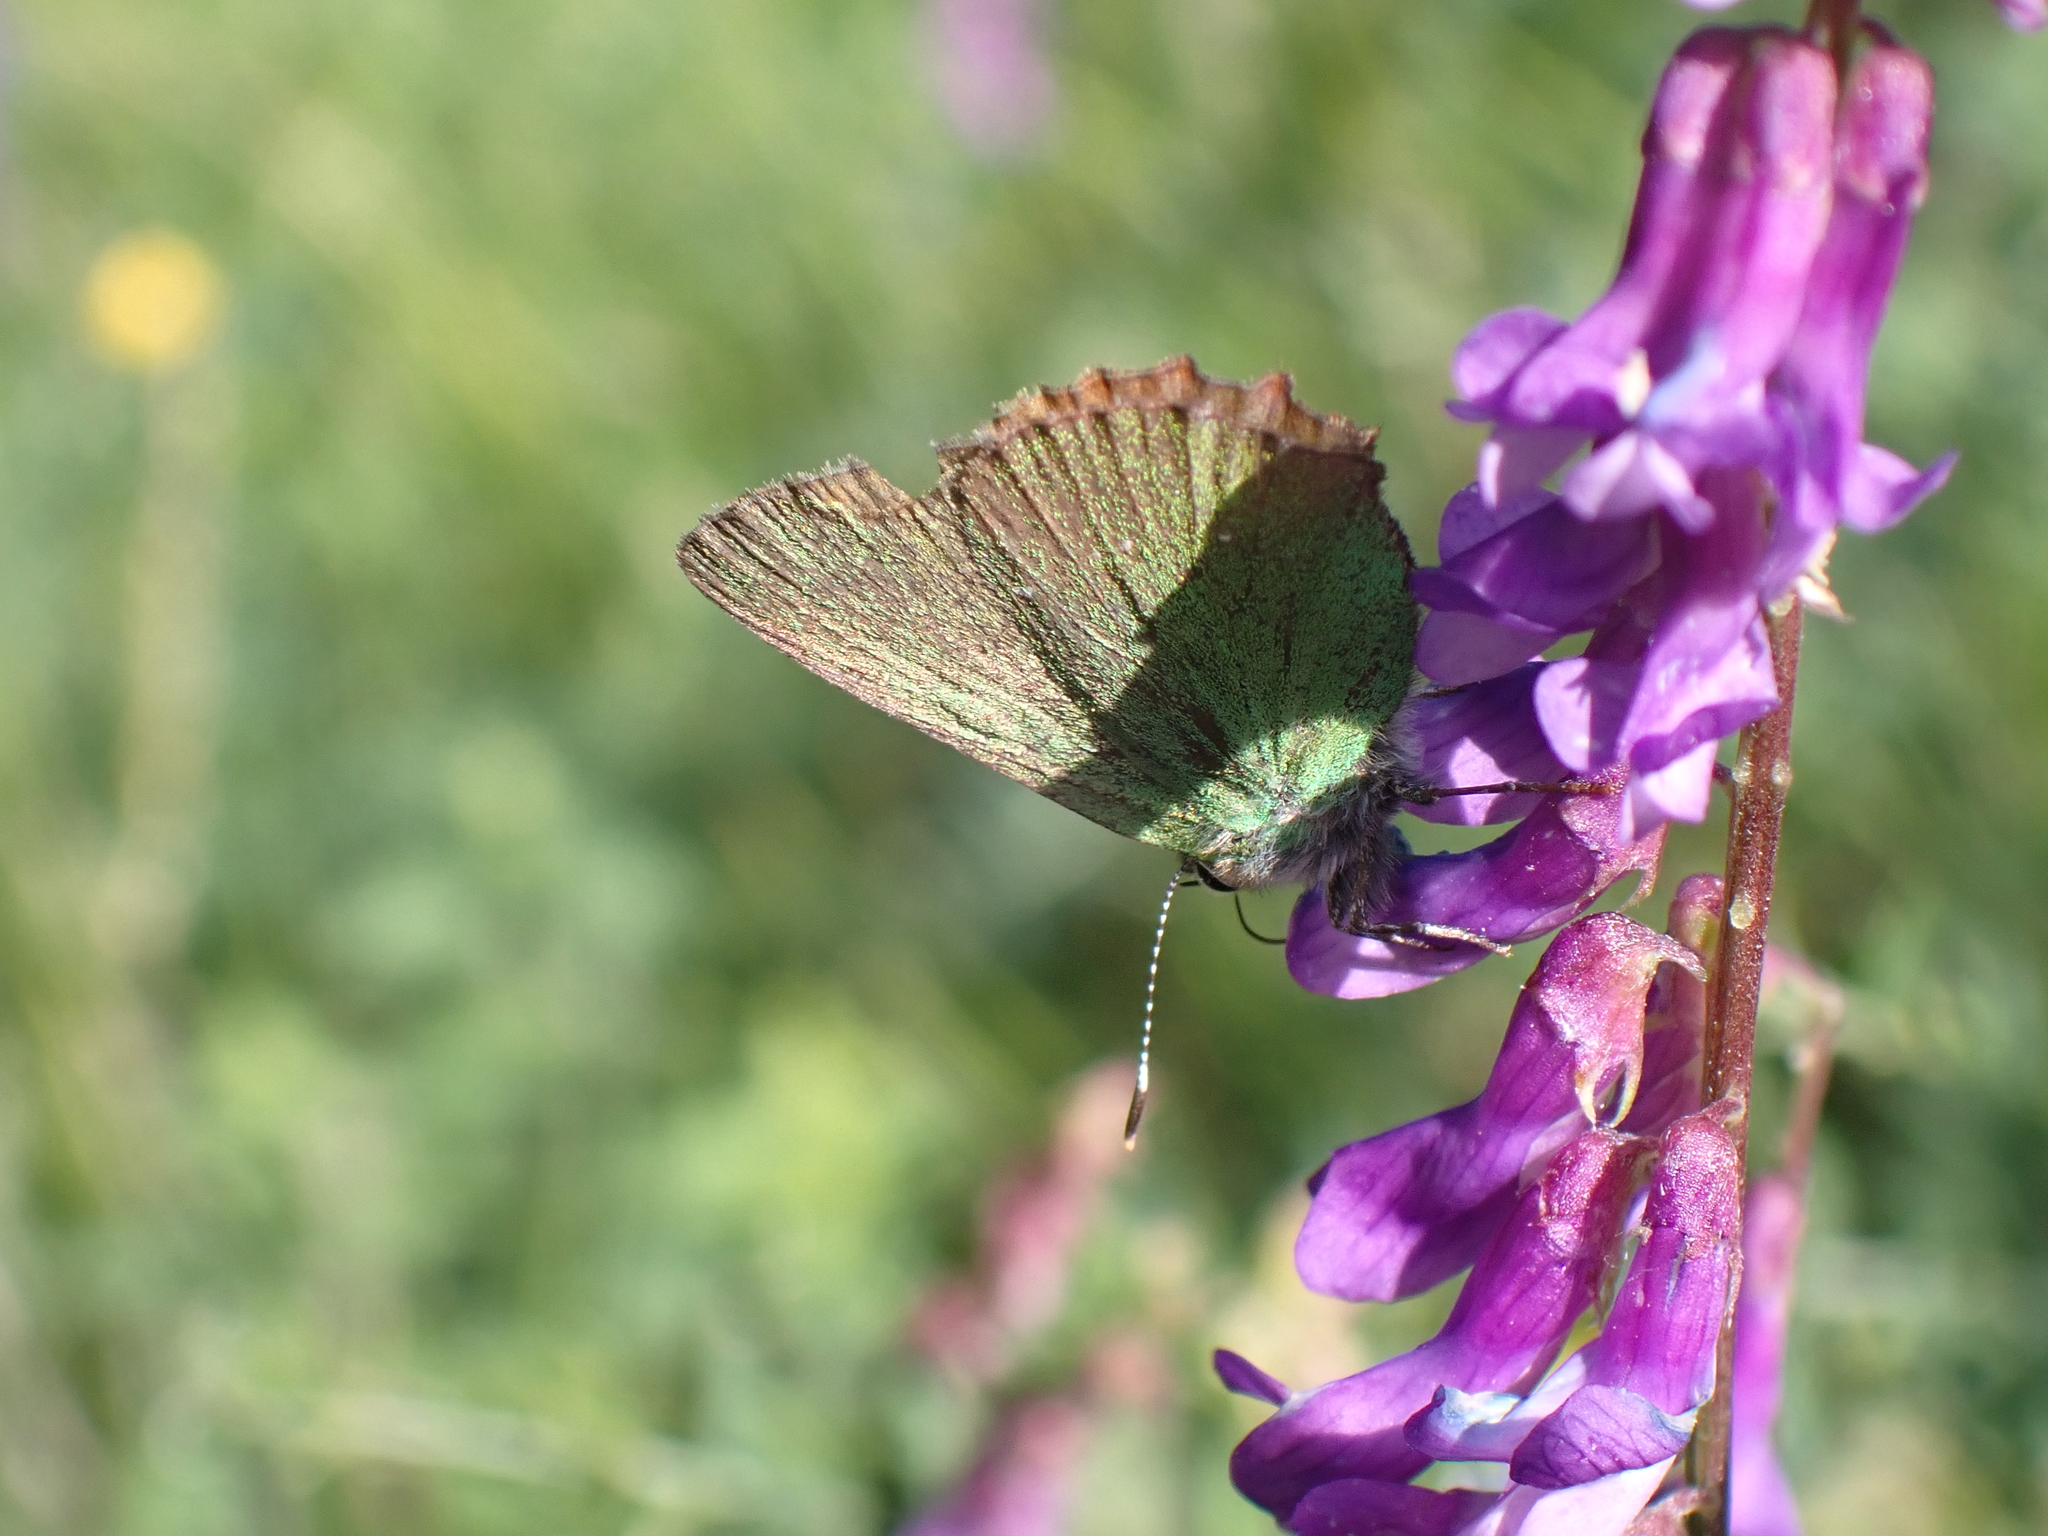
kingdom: Animalia
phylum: Arthropoda
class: Insecta
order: Lepidoptera
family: Lycaenidae
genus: Callophrys
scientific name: Callophrys rubi
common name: Green hairstreak
